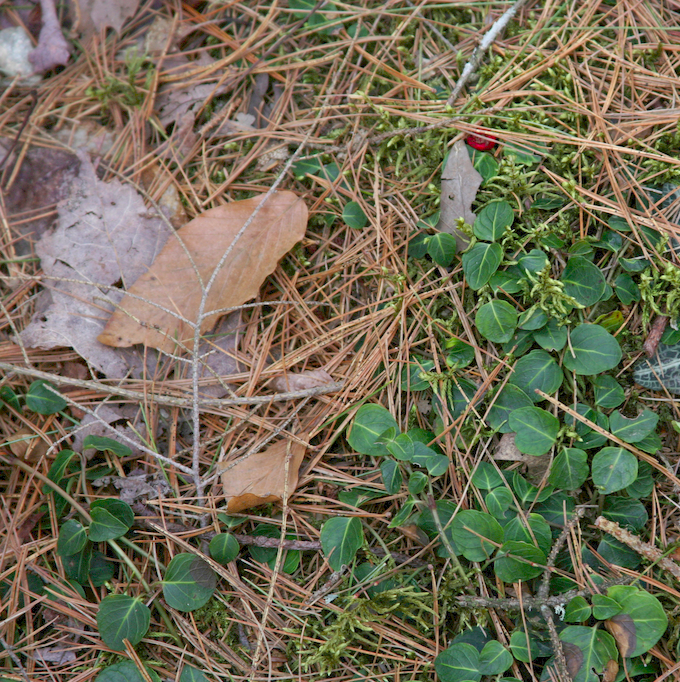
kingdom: Plantae
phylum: Tracheophyta
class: Magnoliopsida
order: Gentianales
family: Rubiaceae
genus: Mitchella
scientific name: Mitchella repens
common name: Partridge-berry
